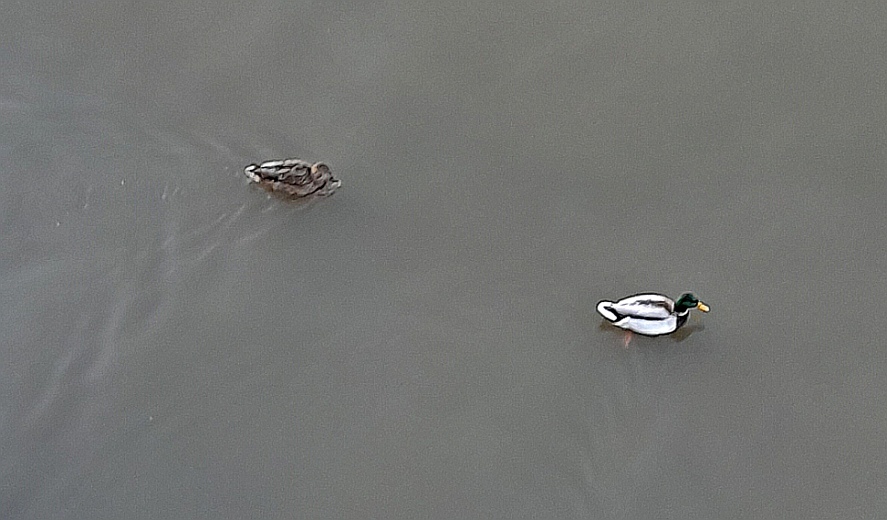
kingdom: Animalia
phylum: Chordata
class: Aves
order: Anseriformes
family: Anatidae
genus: Anas
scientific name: Anas platyrhynchos
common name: Mallard
